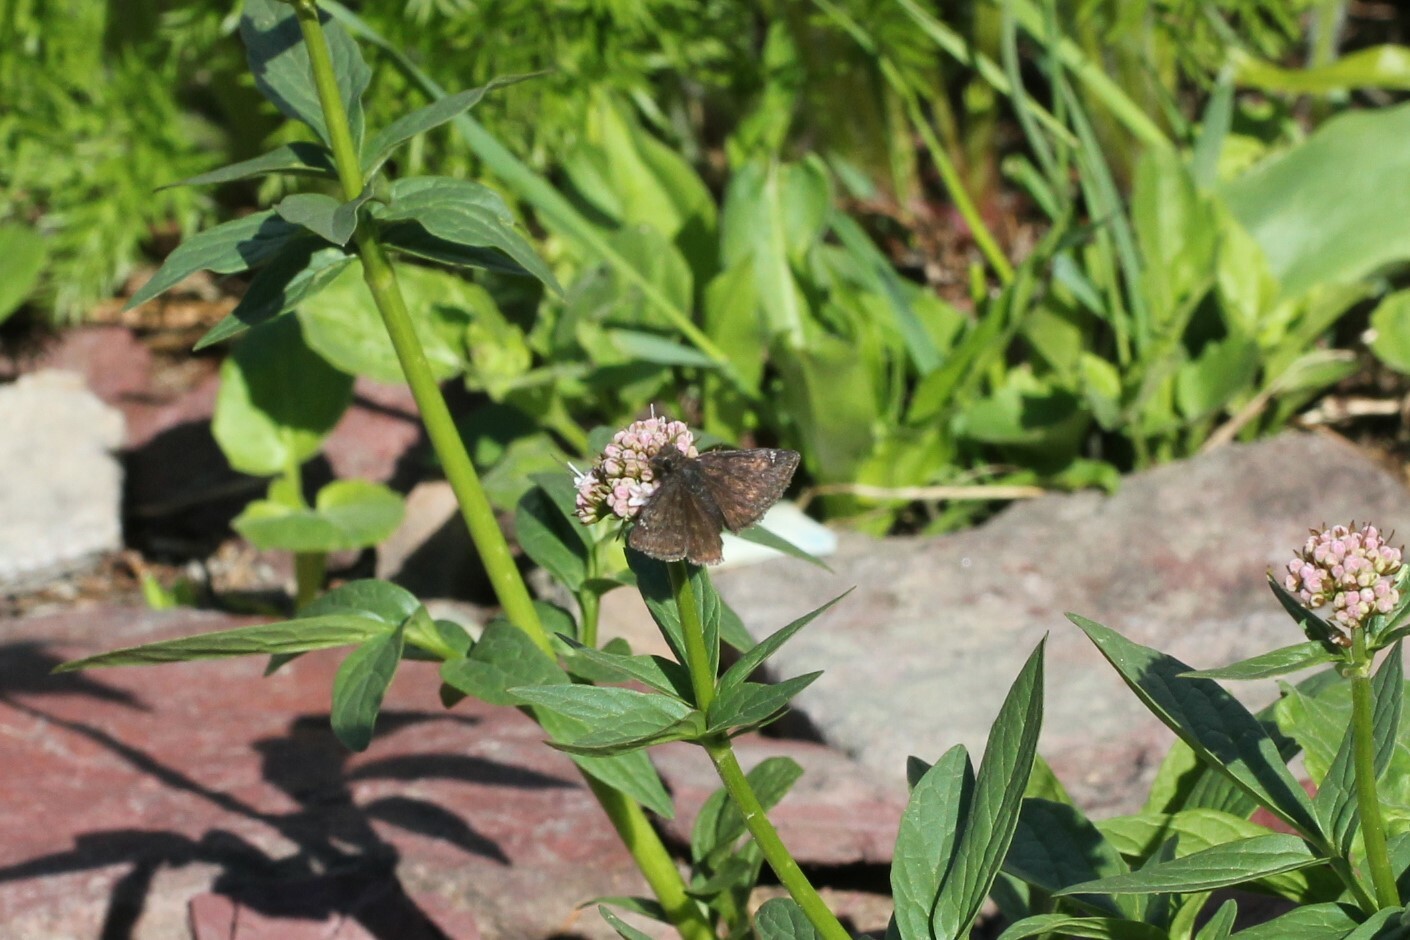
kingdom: Animalia
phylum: Arthropoda
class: Insecta
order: Lepidoptera
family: Hesperiidae
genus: Erynnis
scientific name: Erynnis persius
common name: Persius duskywing
